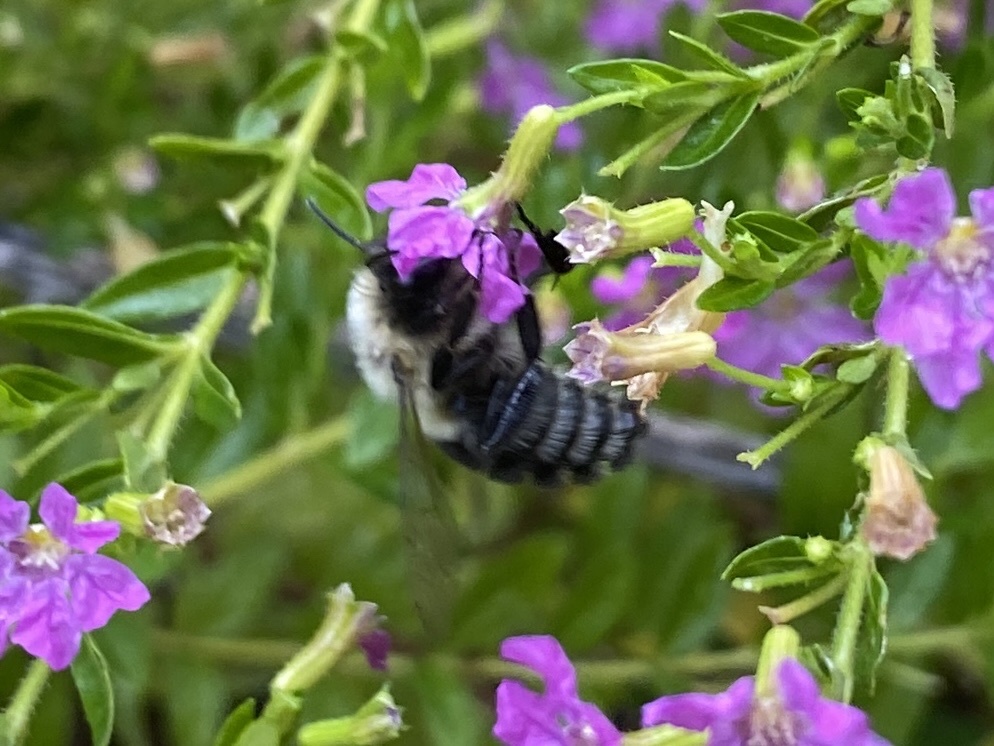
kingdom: Animalia
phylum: Arthropoda
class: Insecta
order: Hymenoptera
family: Apidae
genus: Bombus
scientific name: Bombus impatiens
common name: Common eastern bumble bee
